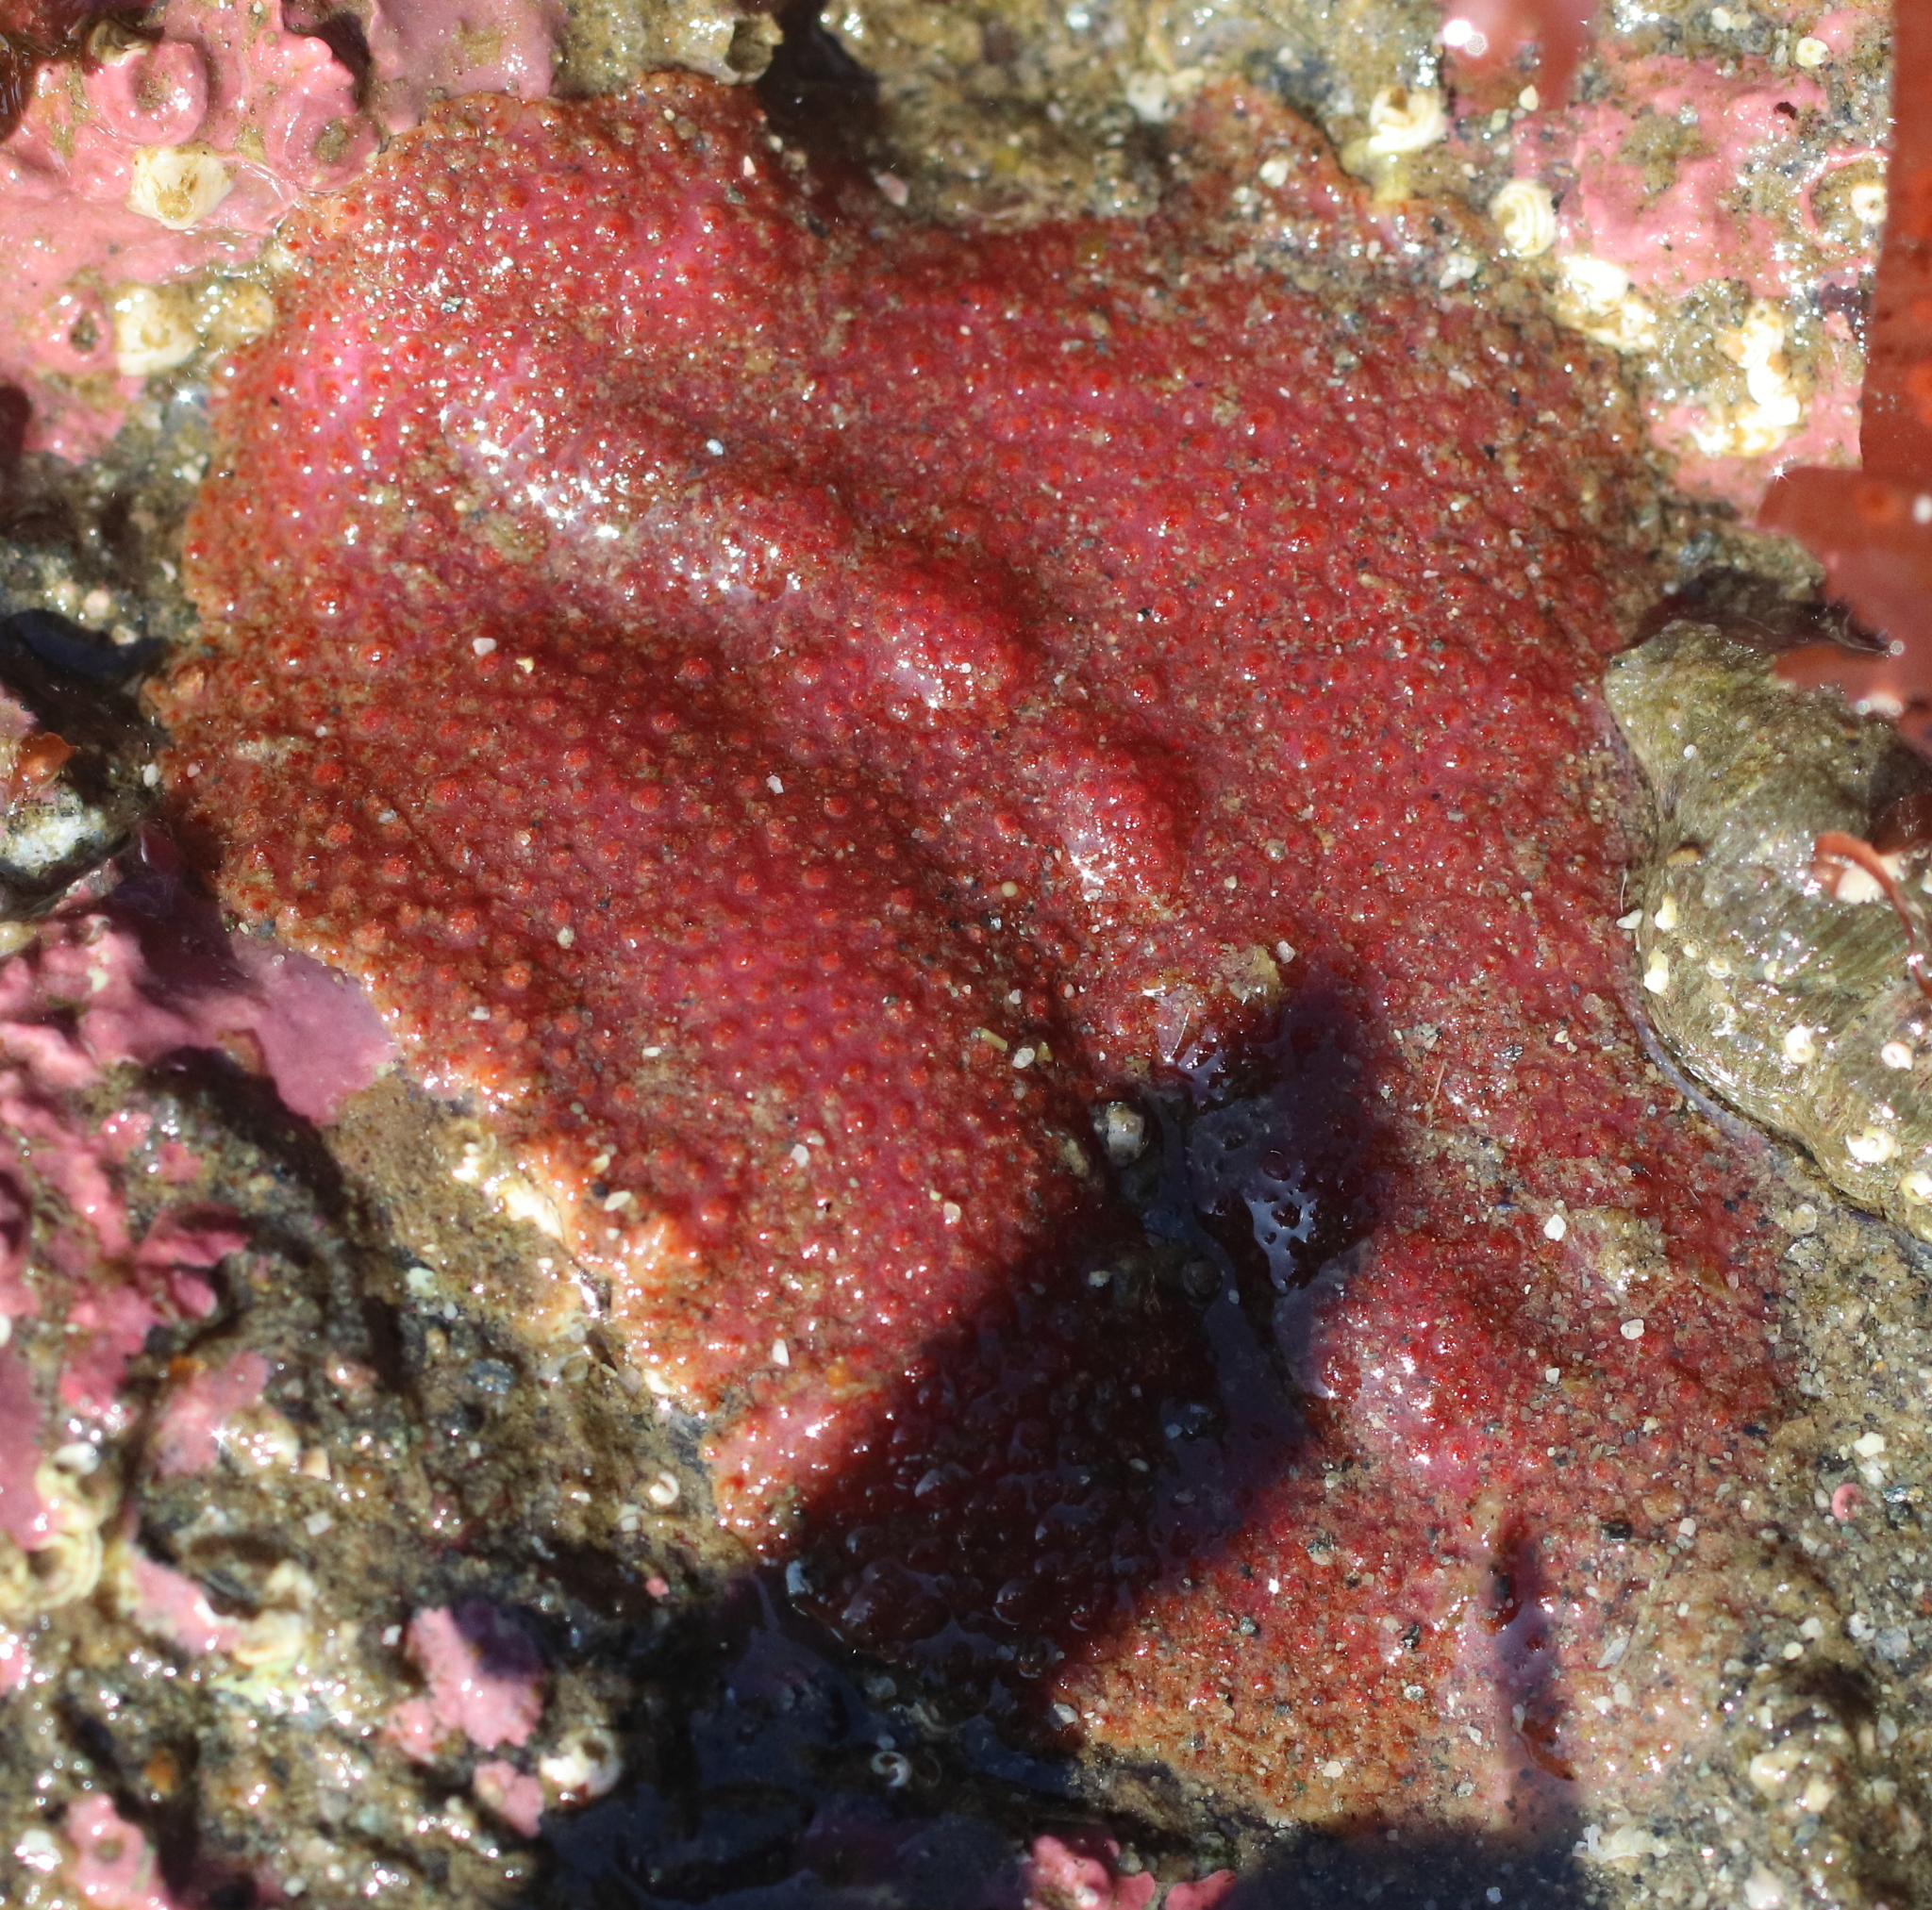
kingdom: Animalia
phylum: Mollusca
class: Polyplacophora
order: Chitonida
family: Acanthochitonidae
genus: Cryptochiton
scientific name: Cryptochiton stelleri
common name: Giant pacific chiton
